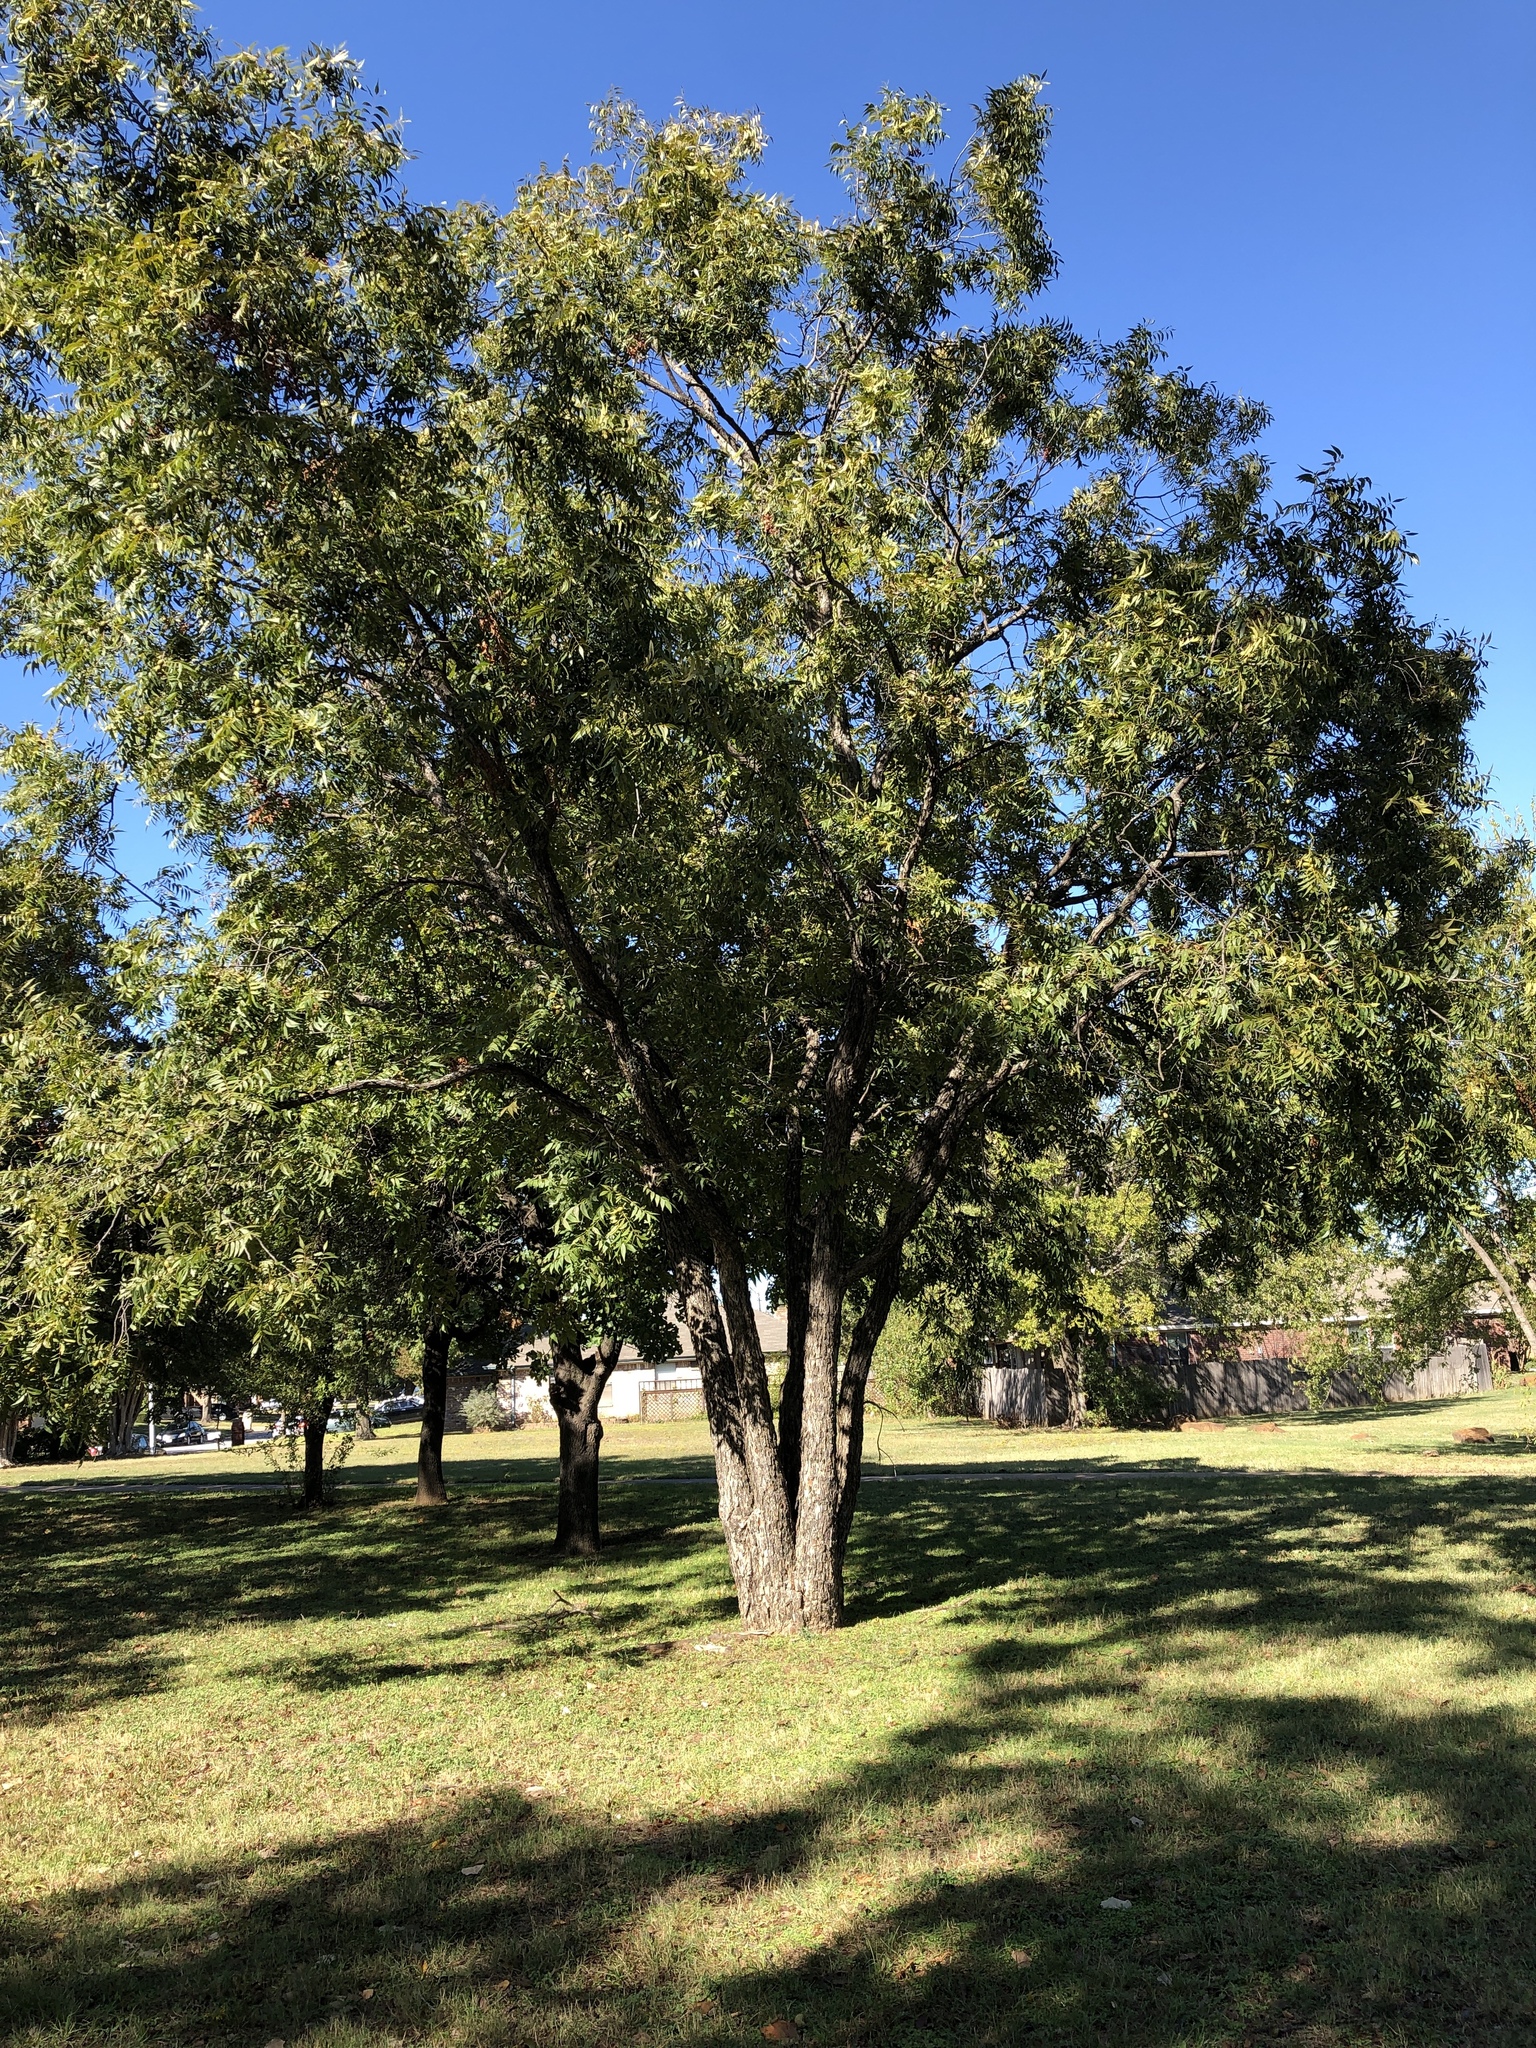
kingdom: Plantae
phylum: Tracheophyta
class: Magnoliopsida
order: Fagales
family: Juglandaceae
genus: Carya
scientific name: Carya illinoinensis
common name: Pecan
